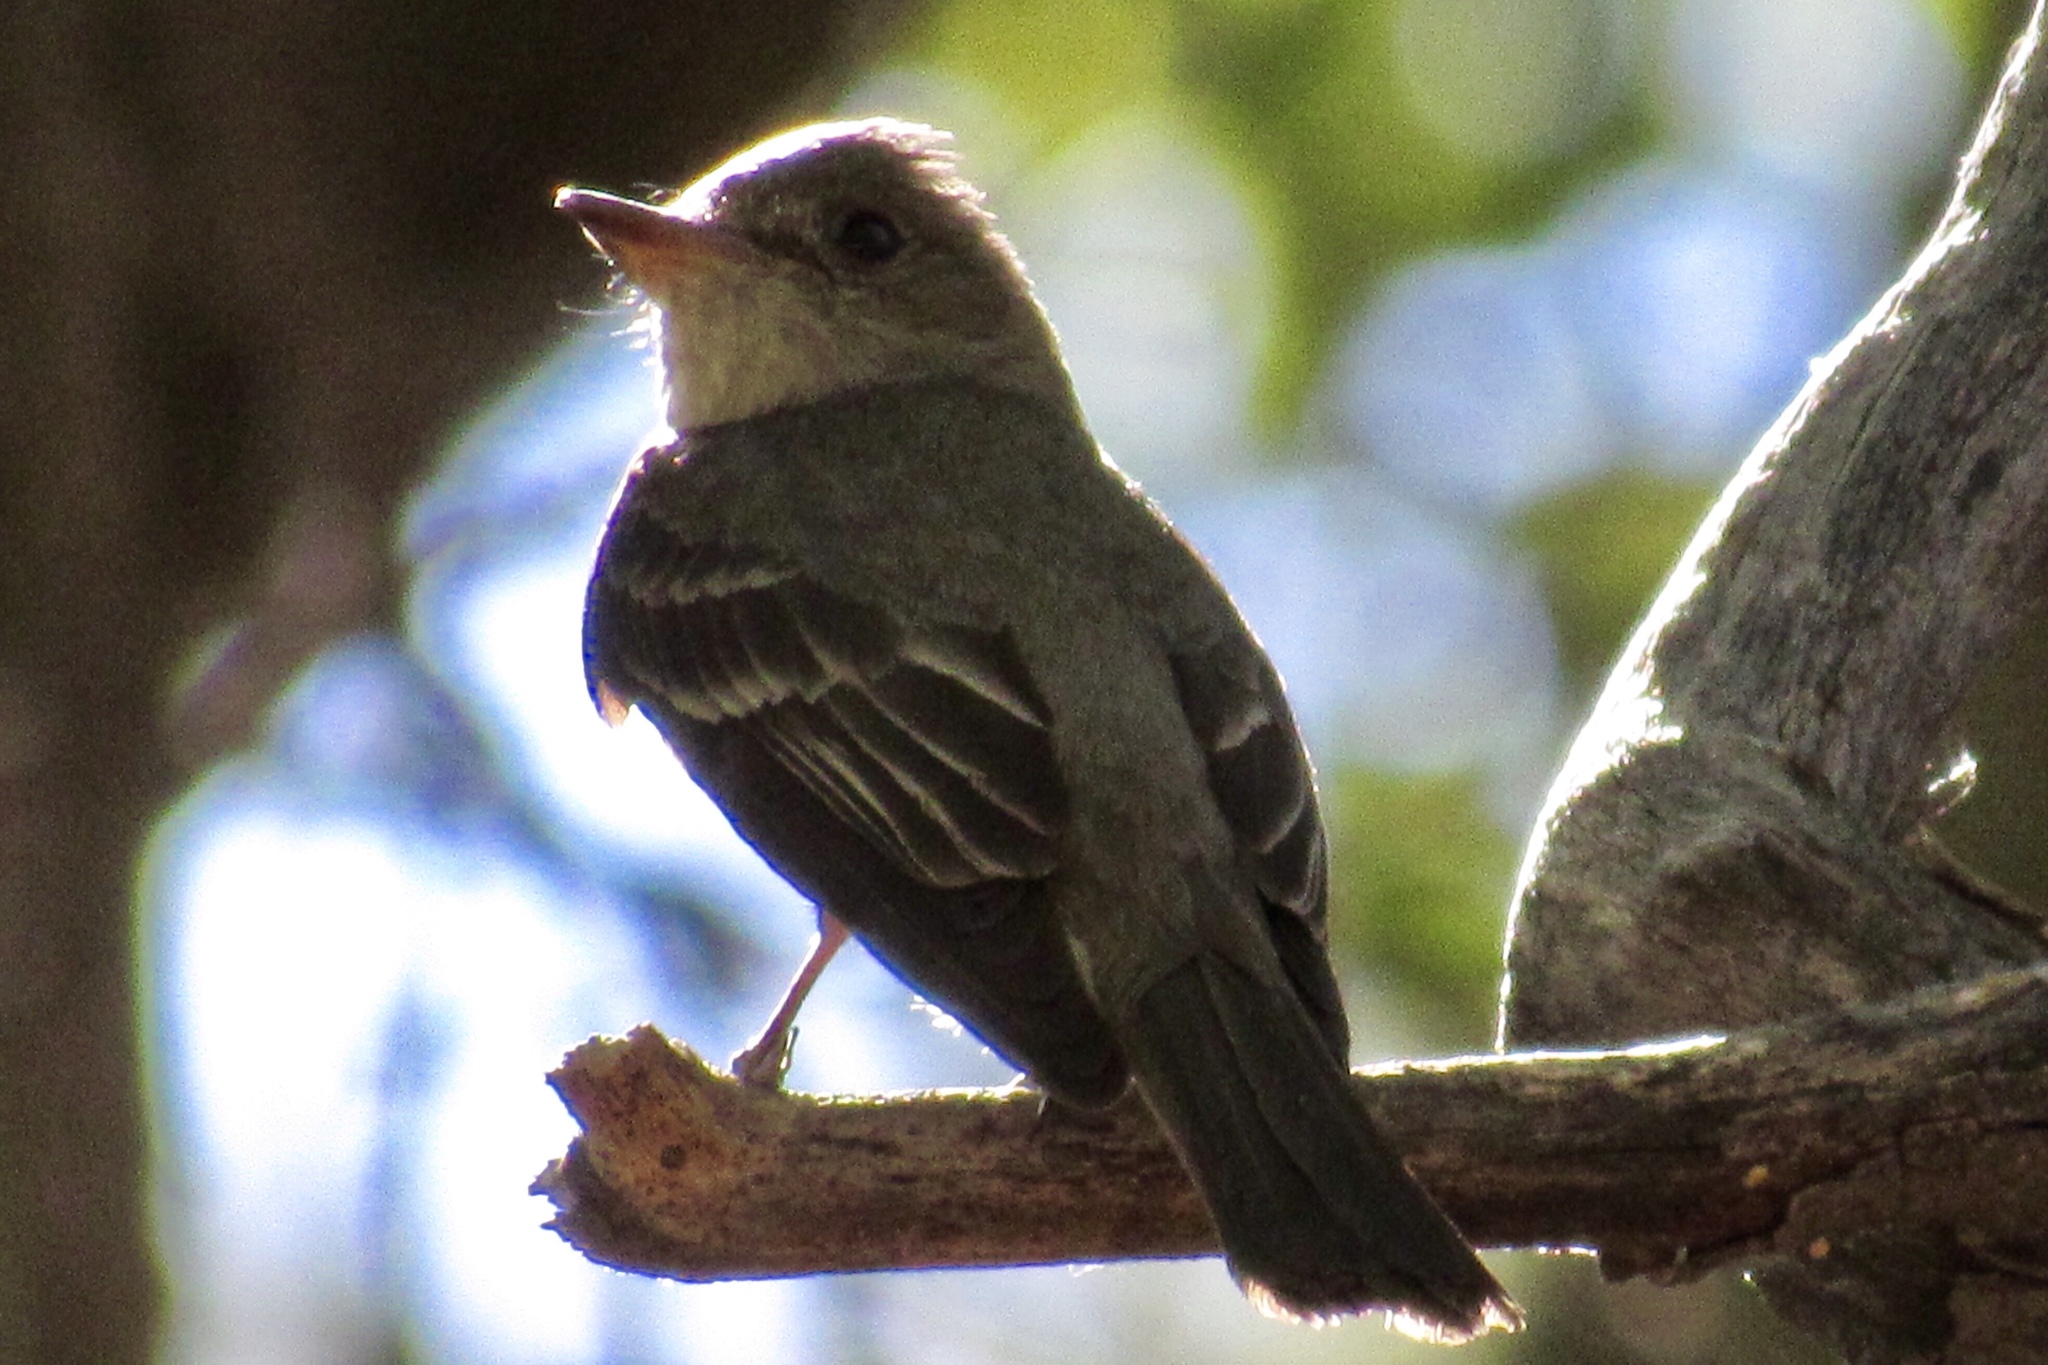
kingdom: Animalia
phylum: Chordata
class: Aves
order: Passeriformes
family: Tyrannidae
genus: Contopus
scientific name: Contopus pertinax
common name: Greater pewee
